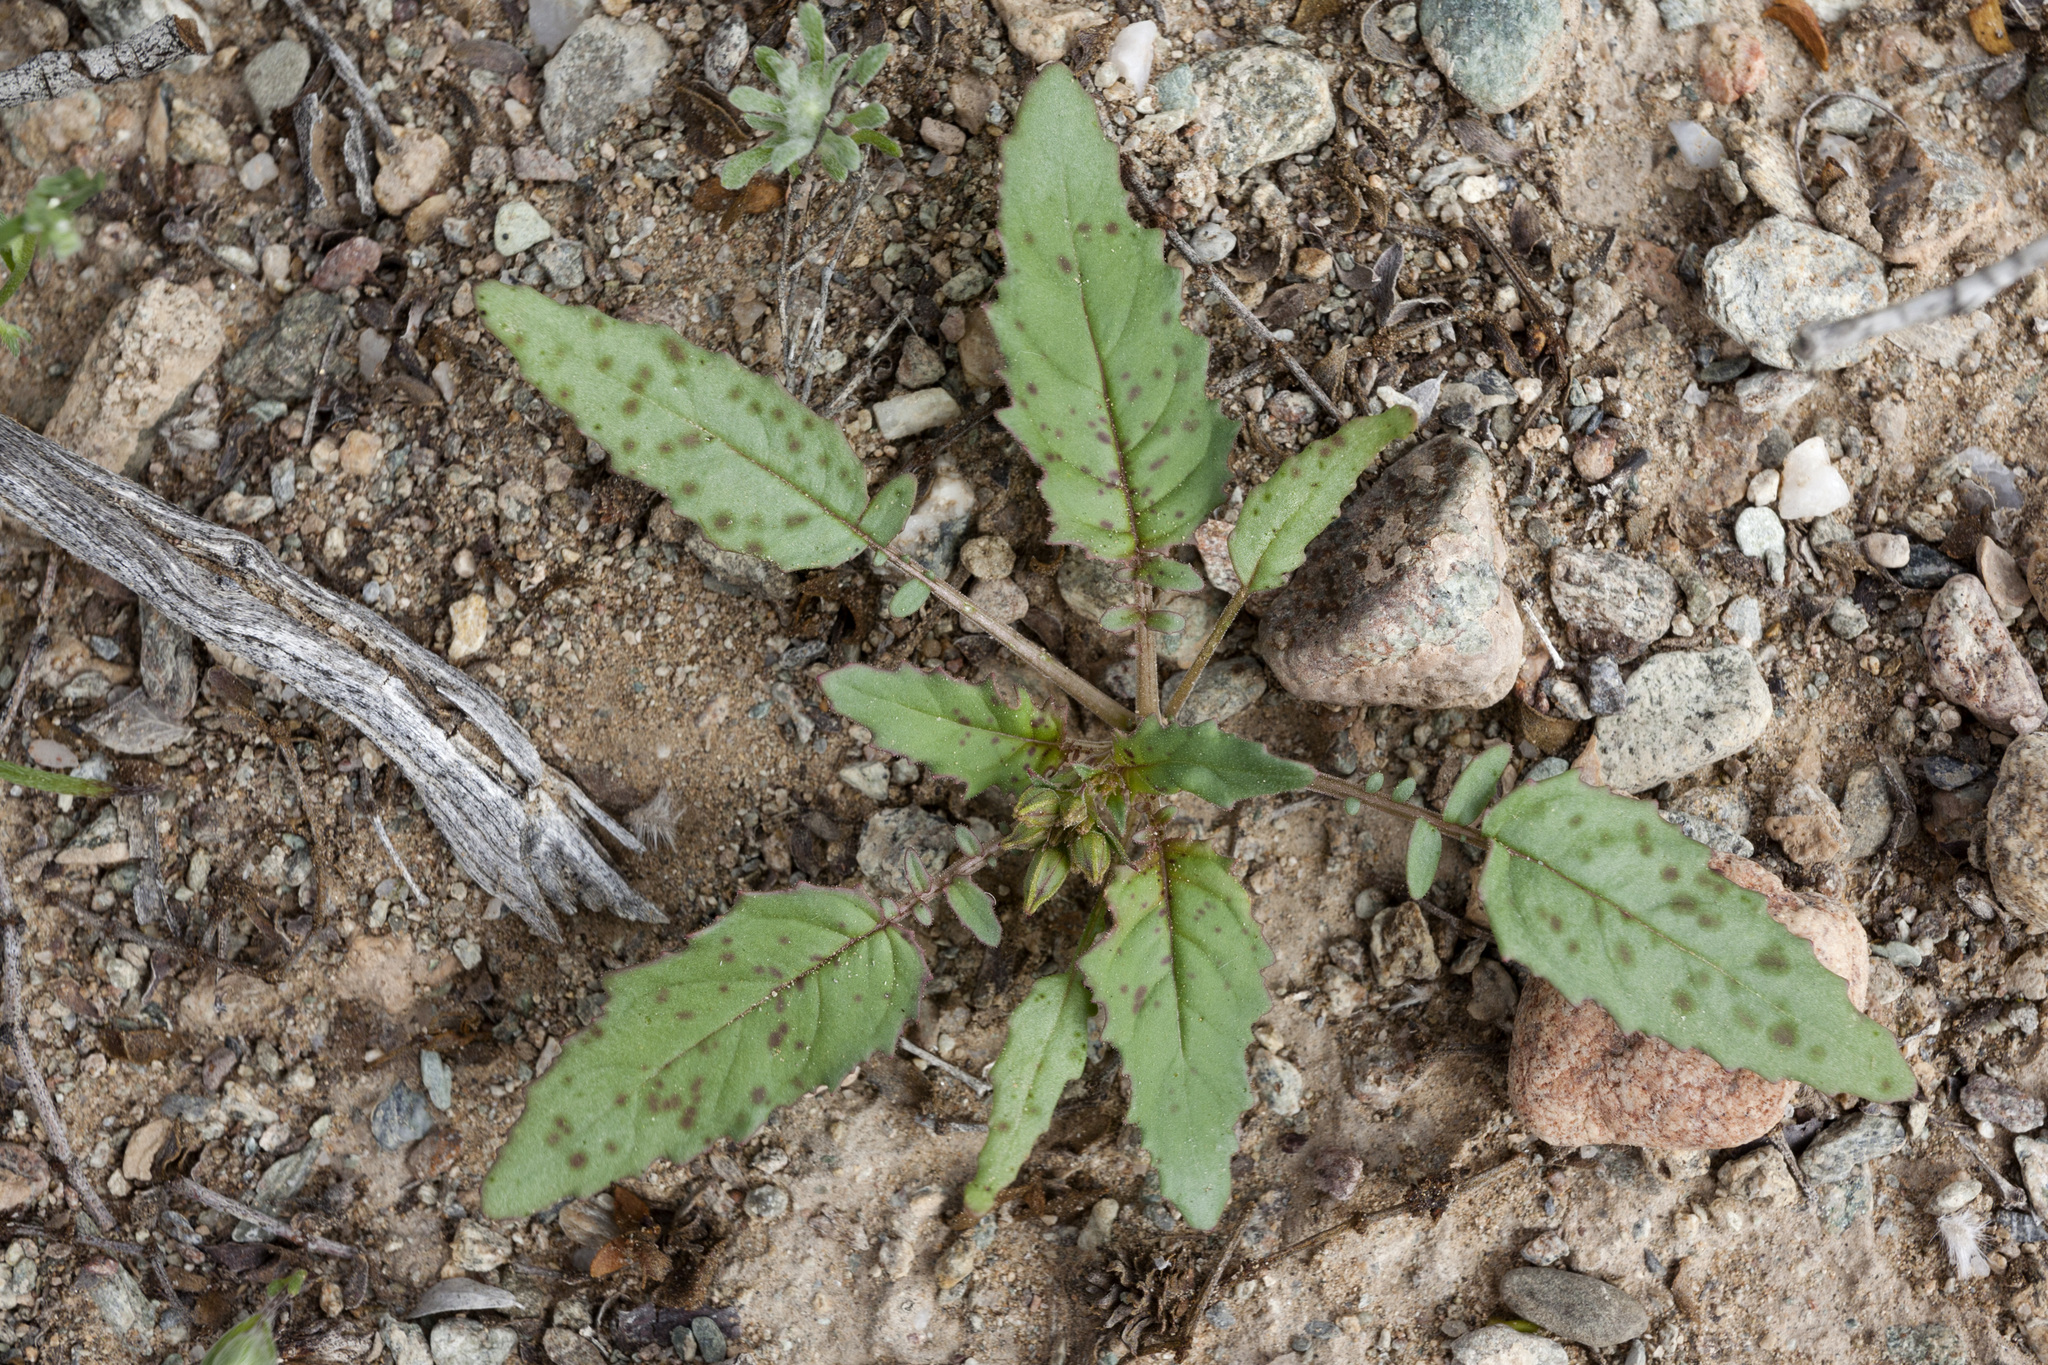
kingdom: Plantae
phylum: Tracheophyta
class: Magnoliopsida
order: Myrtales
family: Onagraceae
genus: Chylismia
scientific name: Chylismia claviformis
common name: Browneyes
